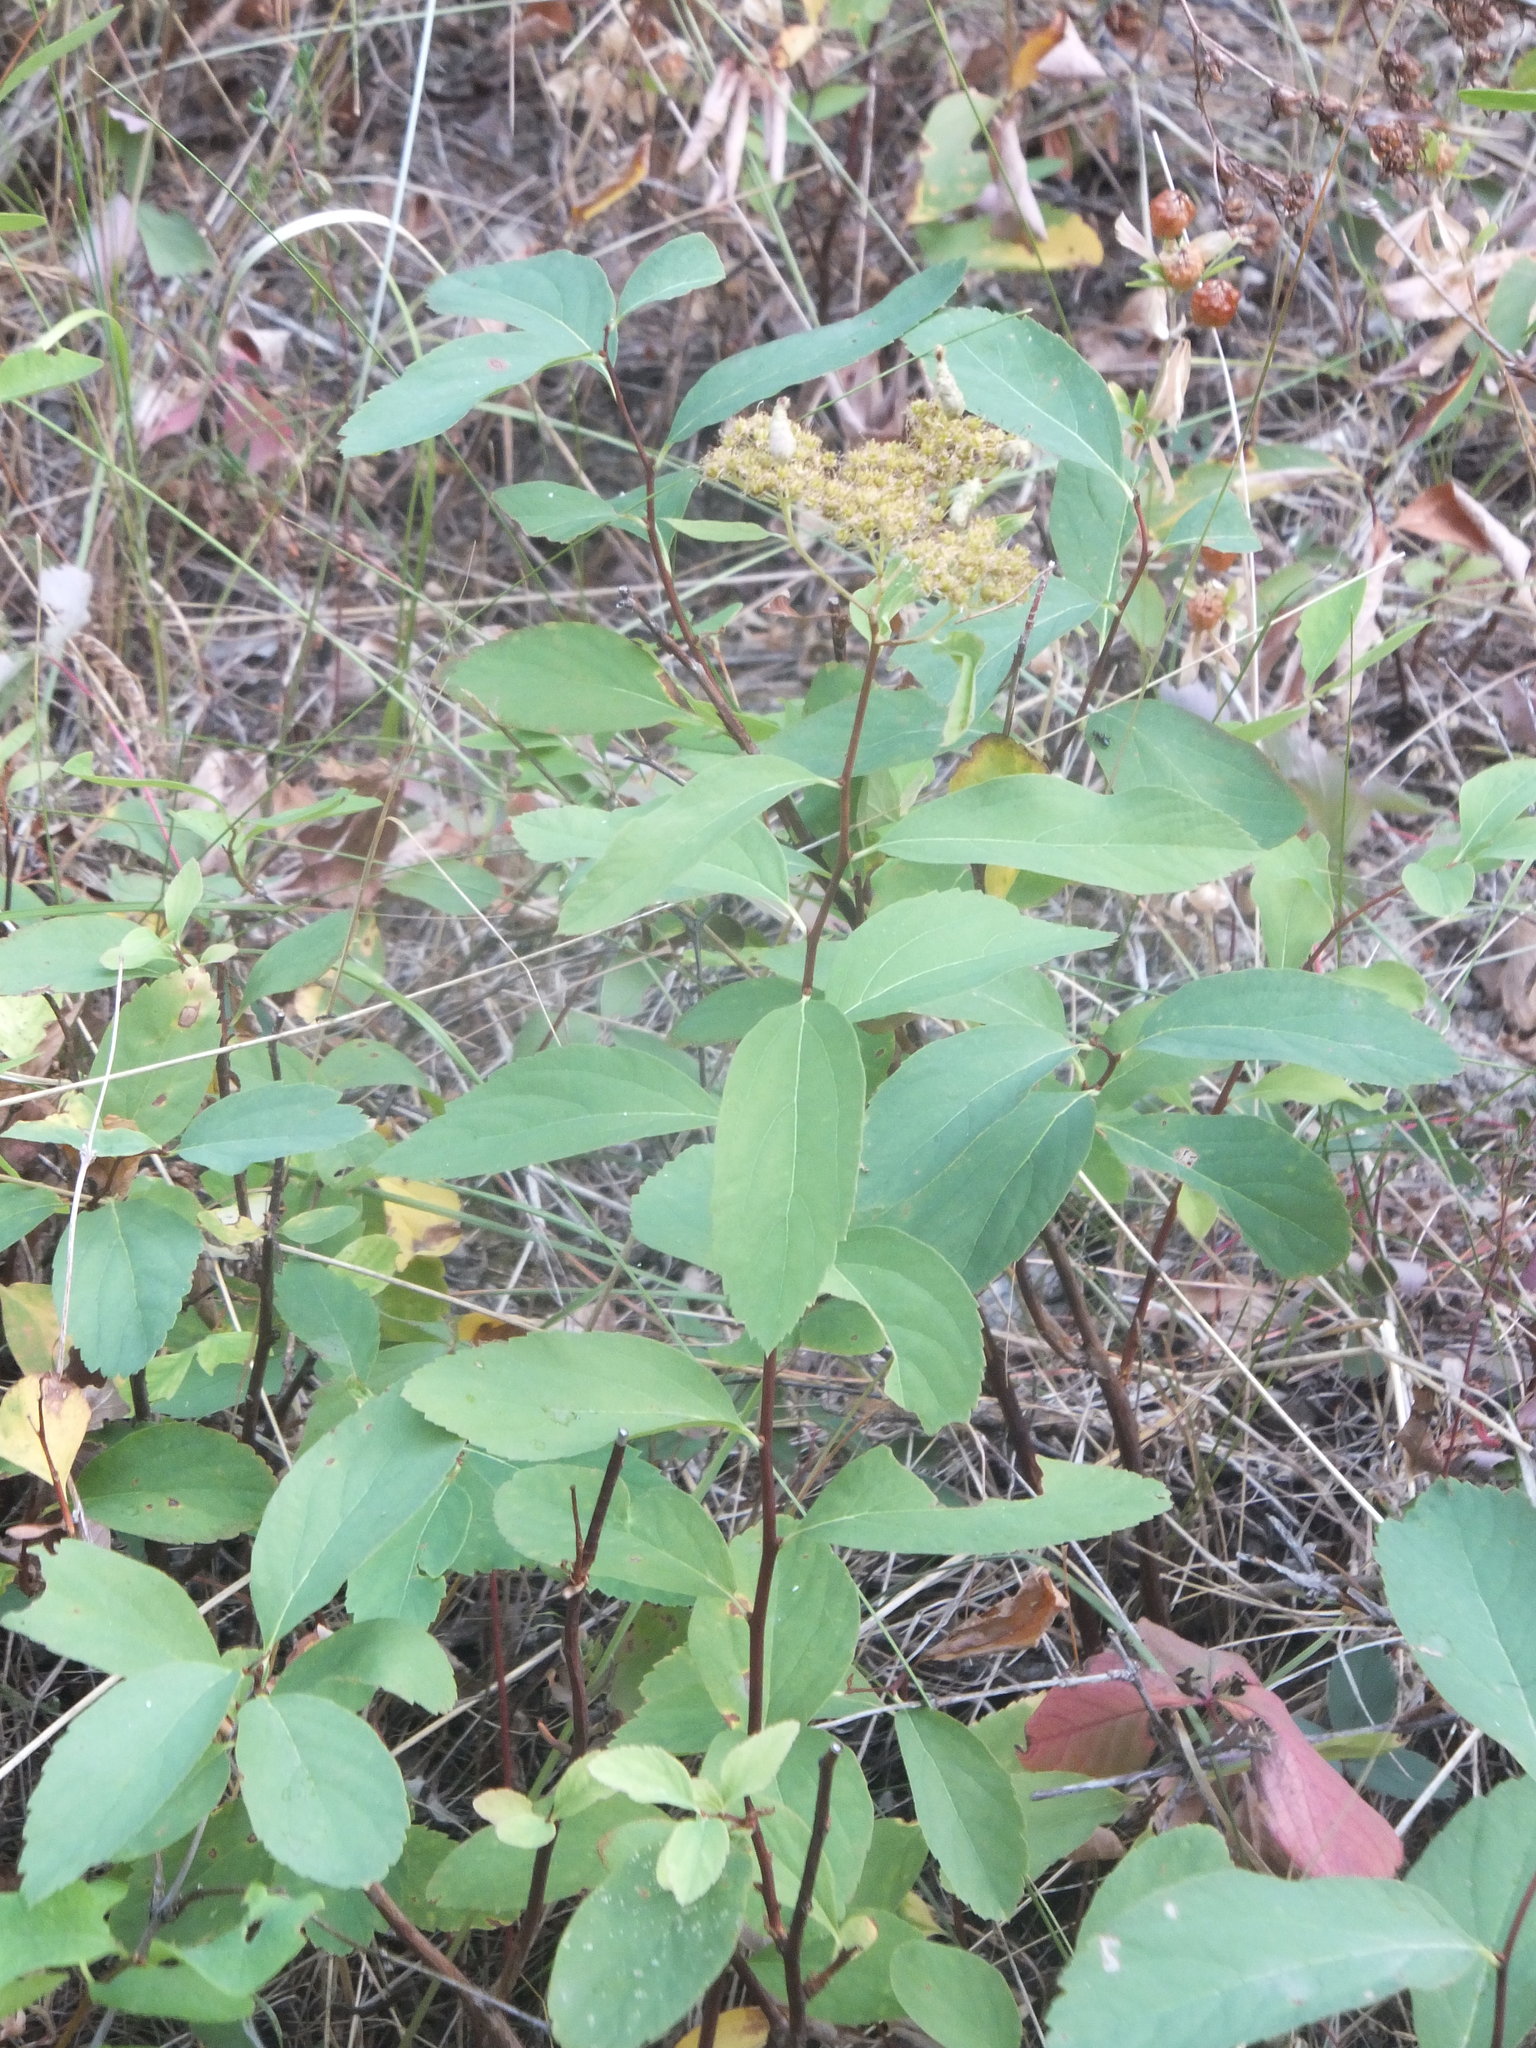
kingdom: Plantae
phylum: Tracheophyta
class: Magnoliopsida
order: Rosales
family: Rosaceae
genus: Spiraea
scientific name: Spiraea lucida
